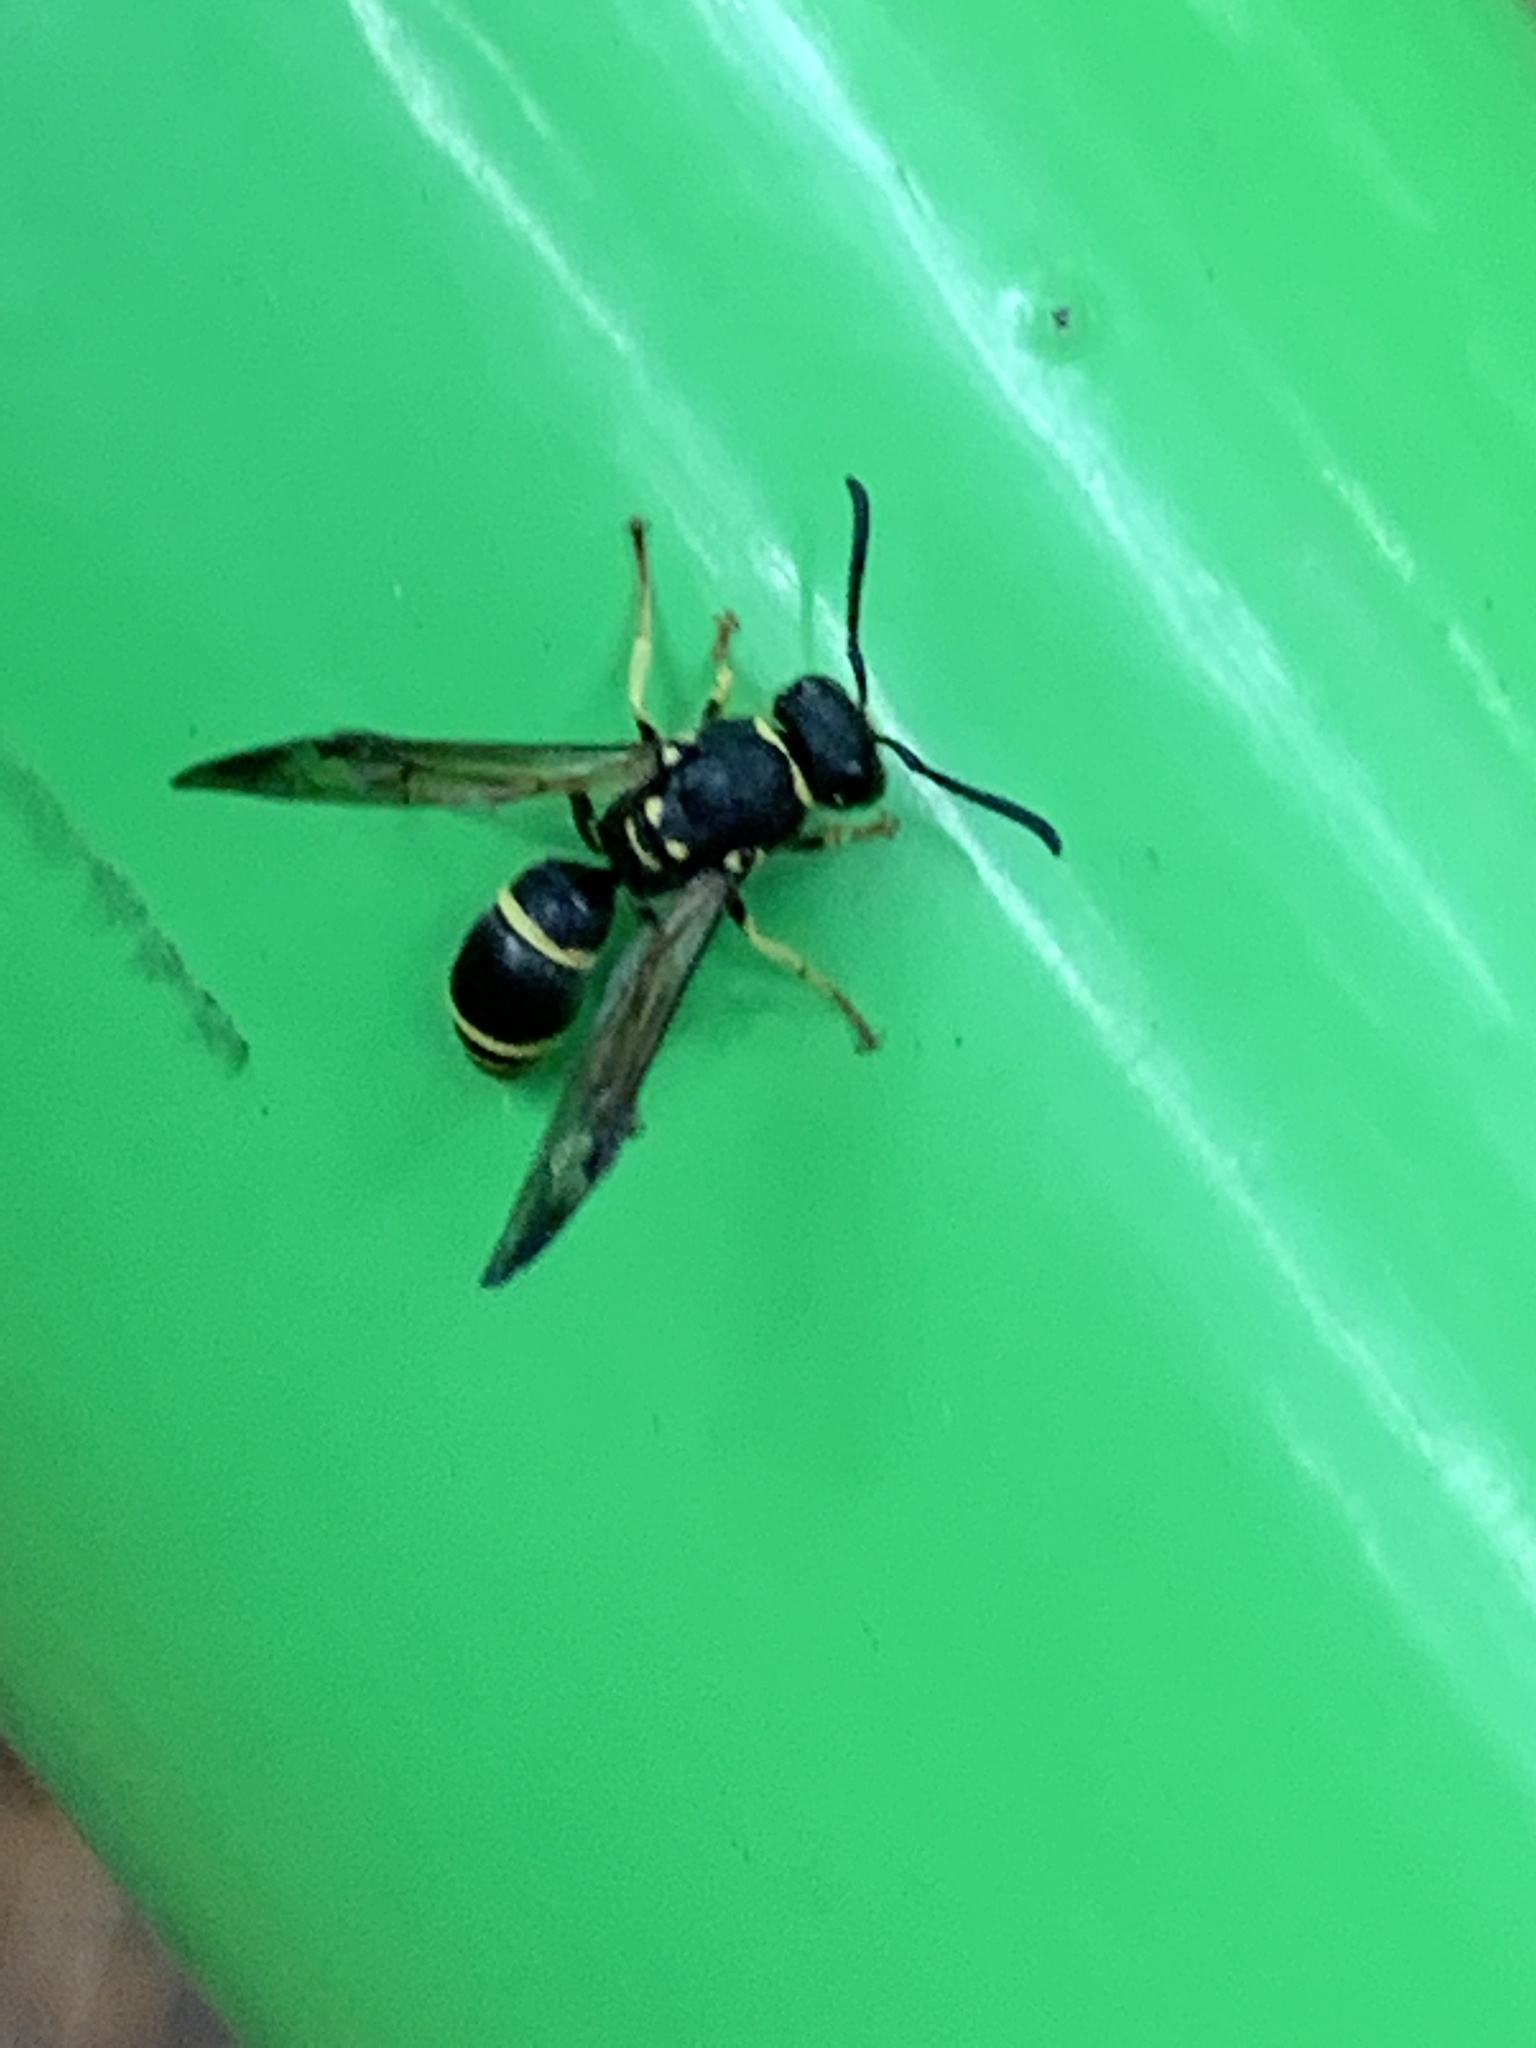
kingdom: Animalia
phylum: Arthropoda
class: Insecta
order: Hymenoptera
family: Vespidae
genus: Ancistrocerus
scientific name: Ancistrocerus adiabatus
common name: Bramble mason wasp
